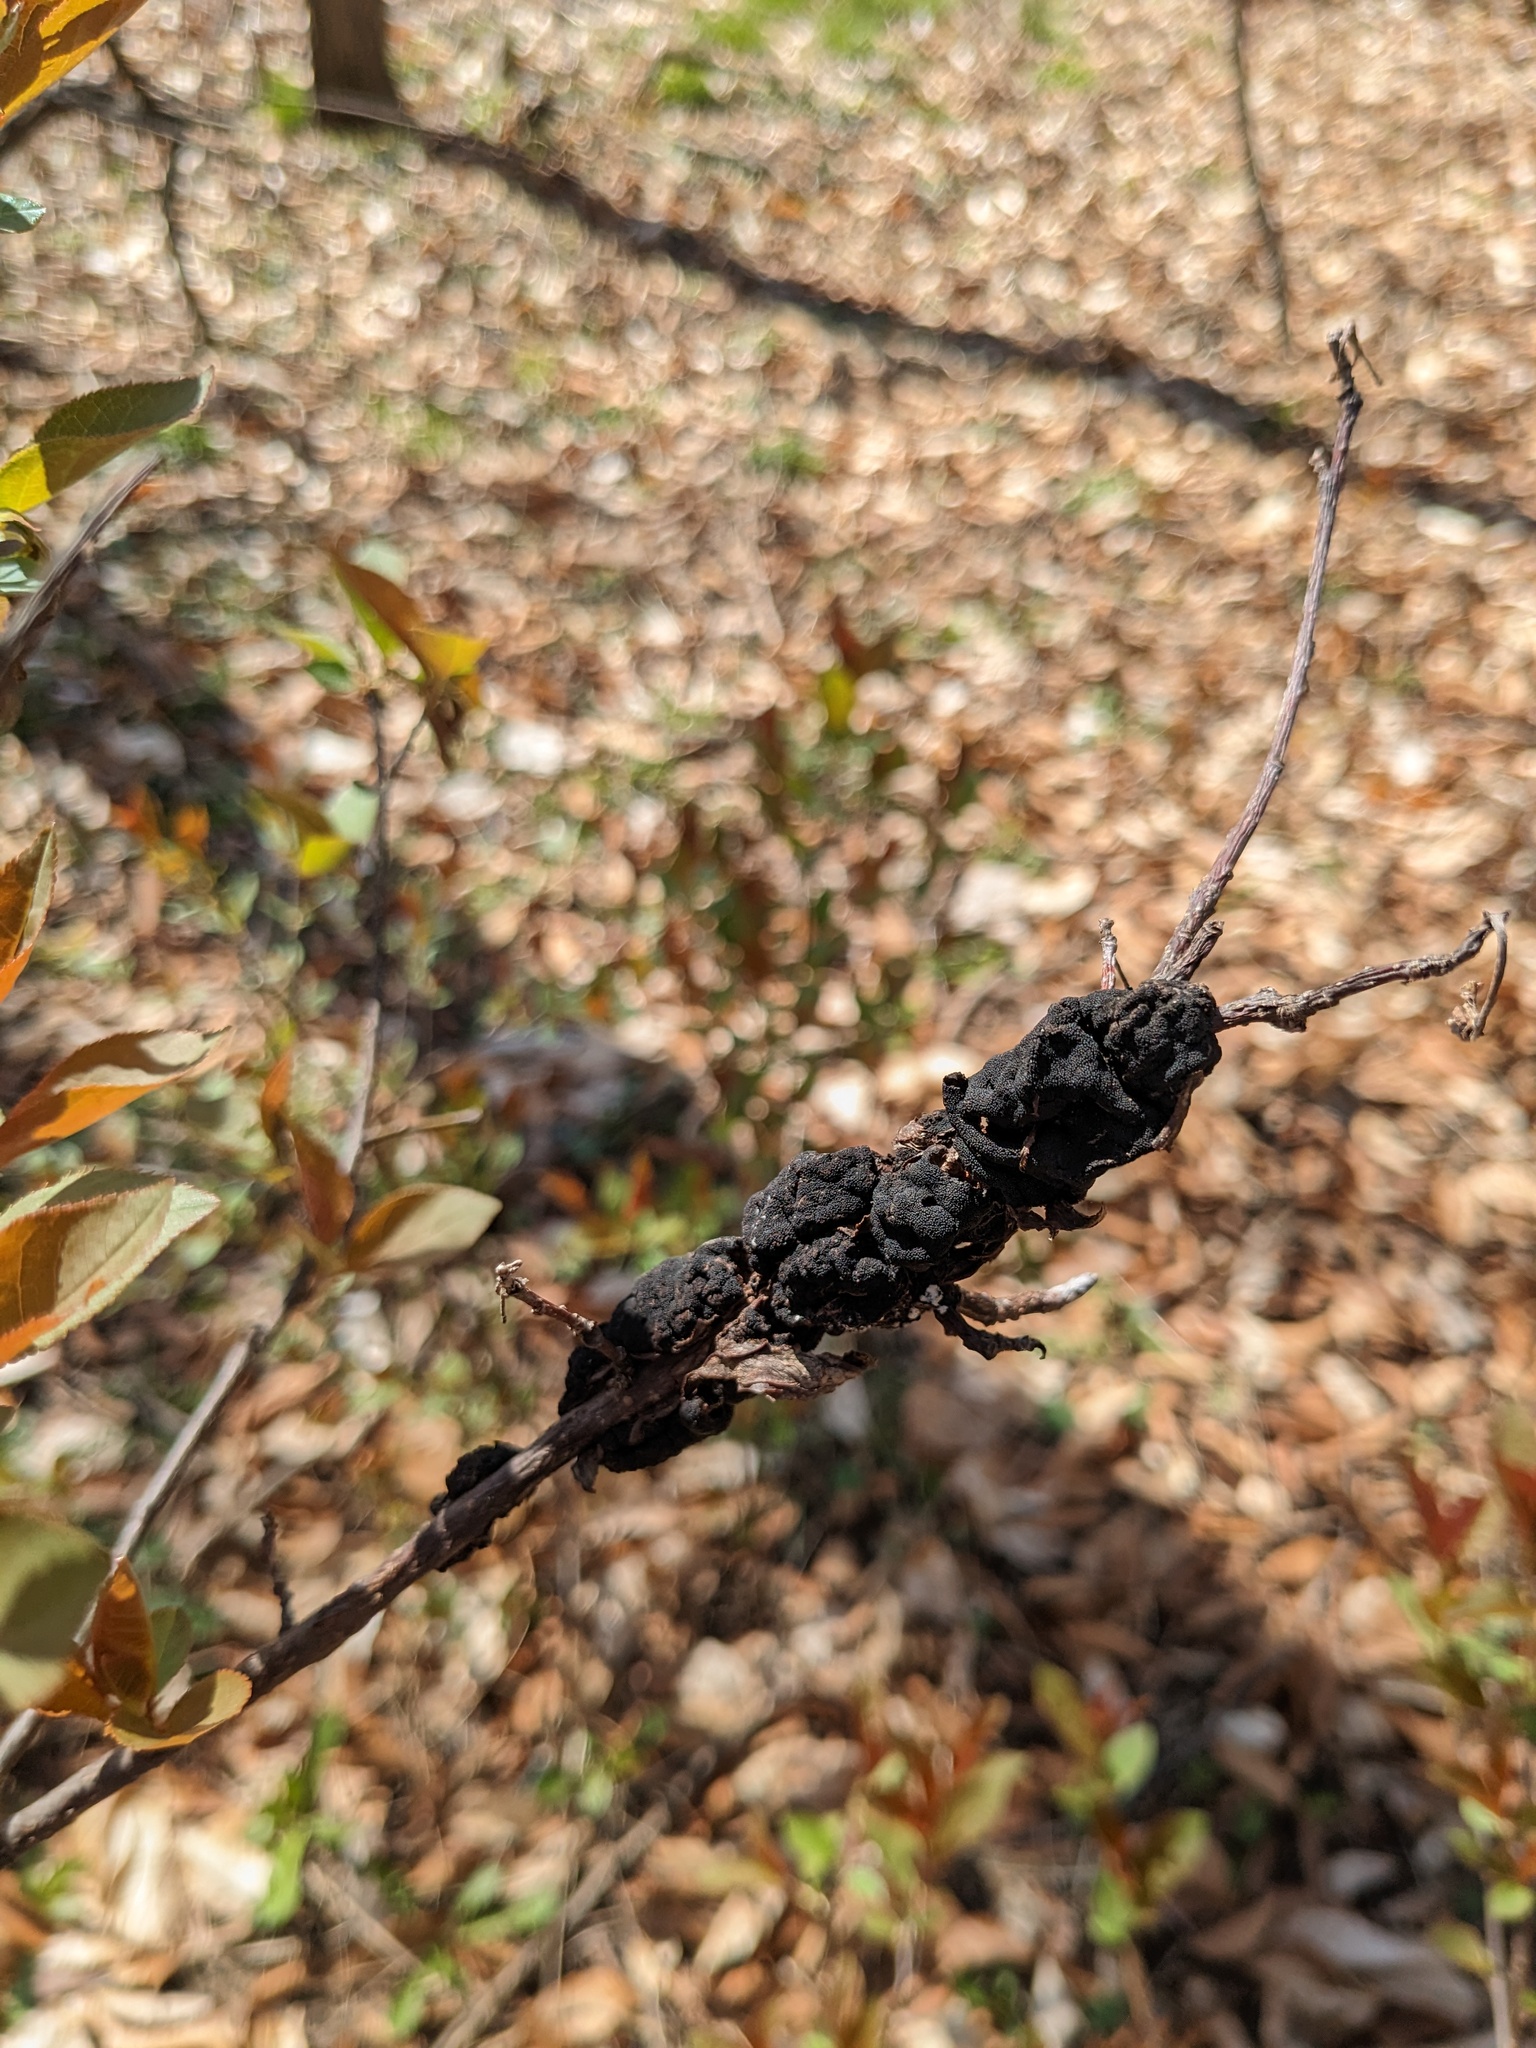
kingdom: Fungi
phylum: Ascomycota
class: Dothideomycetes
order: Venturiales
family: Venturiaceae
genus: Apiosporina
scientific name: Apiosporina morbosa
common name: Black knot
